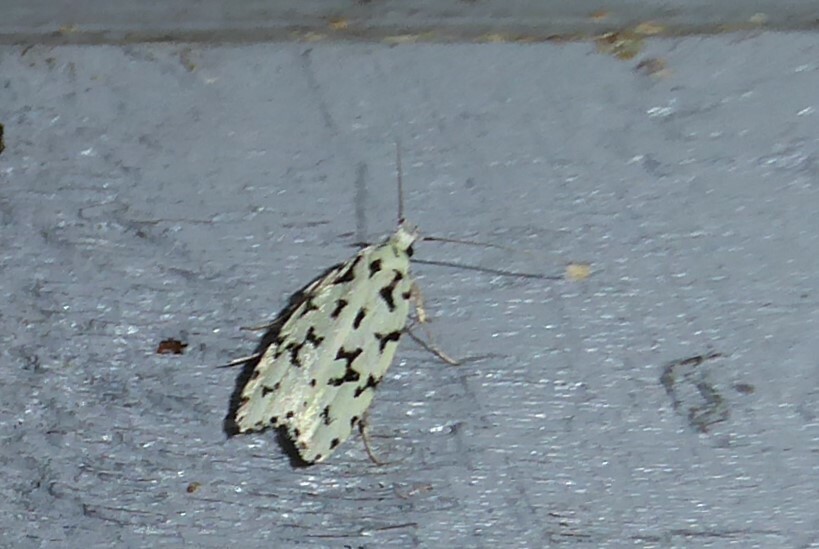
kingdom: Animalia
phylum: Arthropoda
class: Insecta
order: Lepidoptera
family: Oecophoridae
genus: Izatha
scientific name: Izatha huttoni
